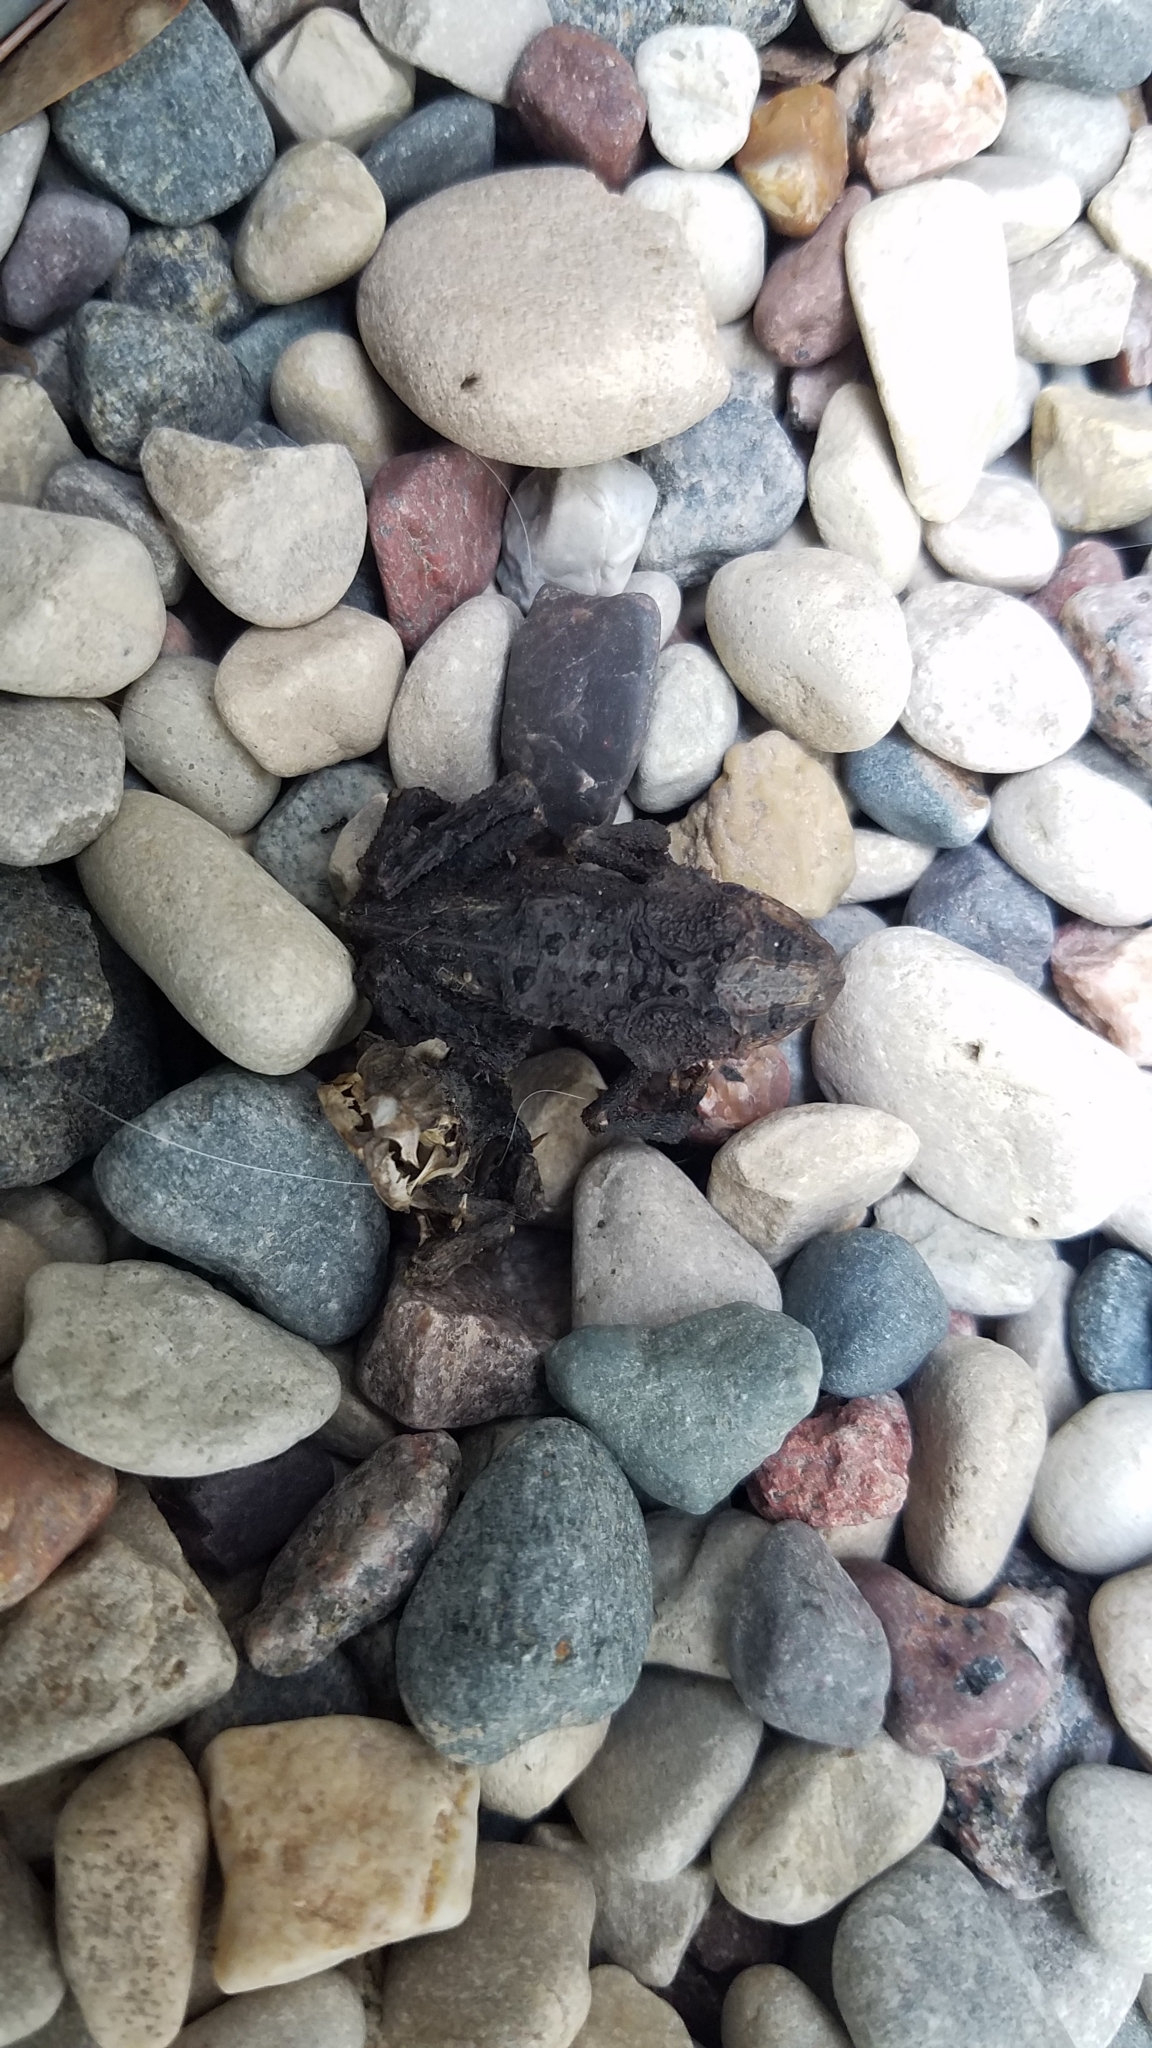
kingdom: Animalia
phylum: Chordata
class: Amphibia
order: Anura
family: Bufonidae
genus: Anaxyrus
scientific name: Anaxyrus americanus
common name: American toad
